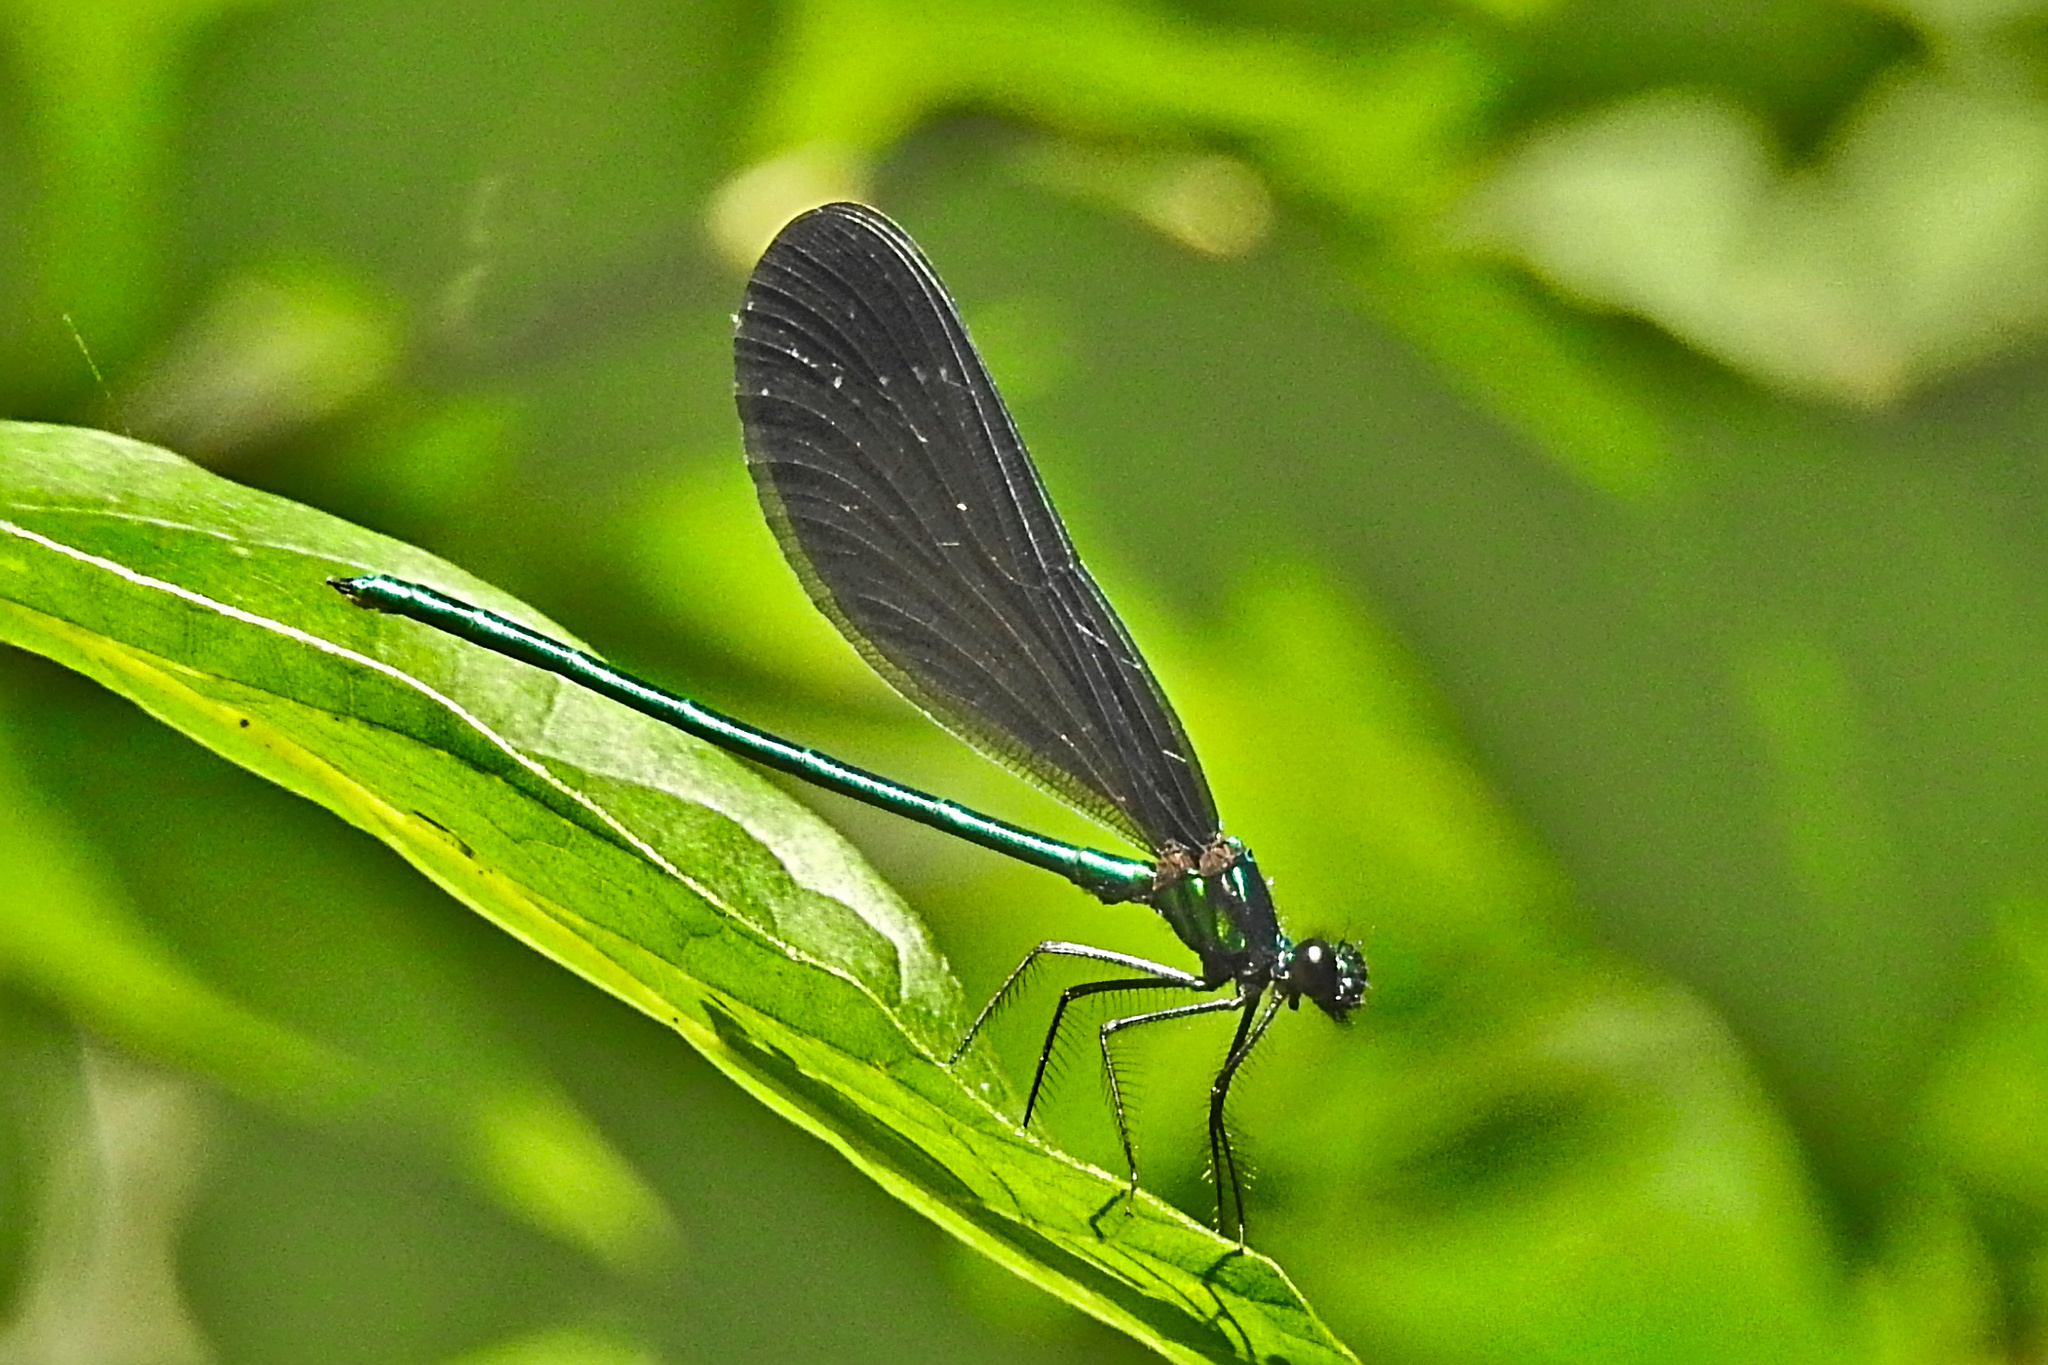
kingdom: Animalia
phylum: Arthropoda
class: Insecta
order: Odonata
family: Calopterygidae
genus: Calopteryx
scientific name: Calopteryx maculata
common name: Ebony jewelwing
